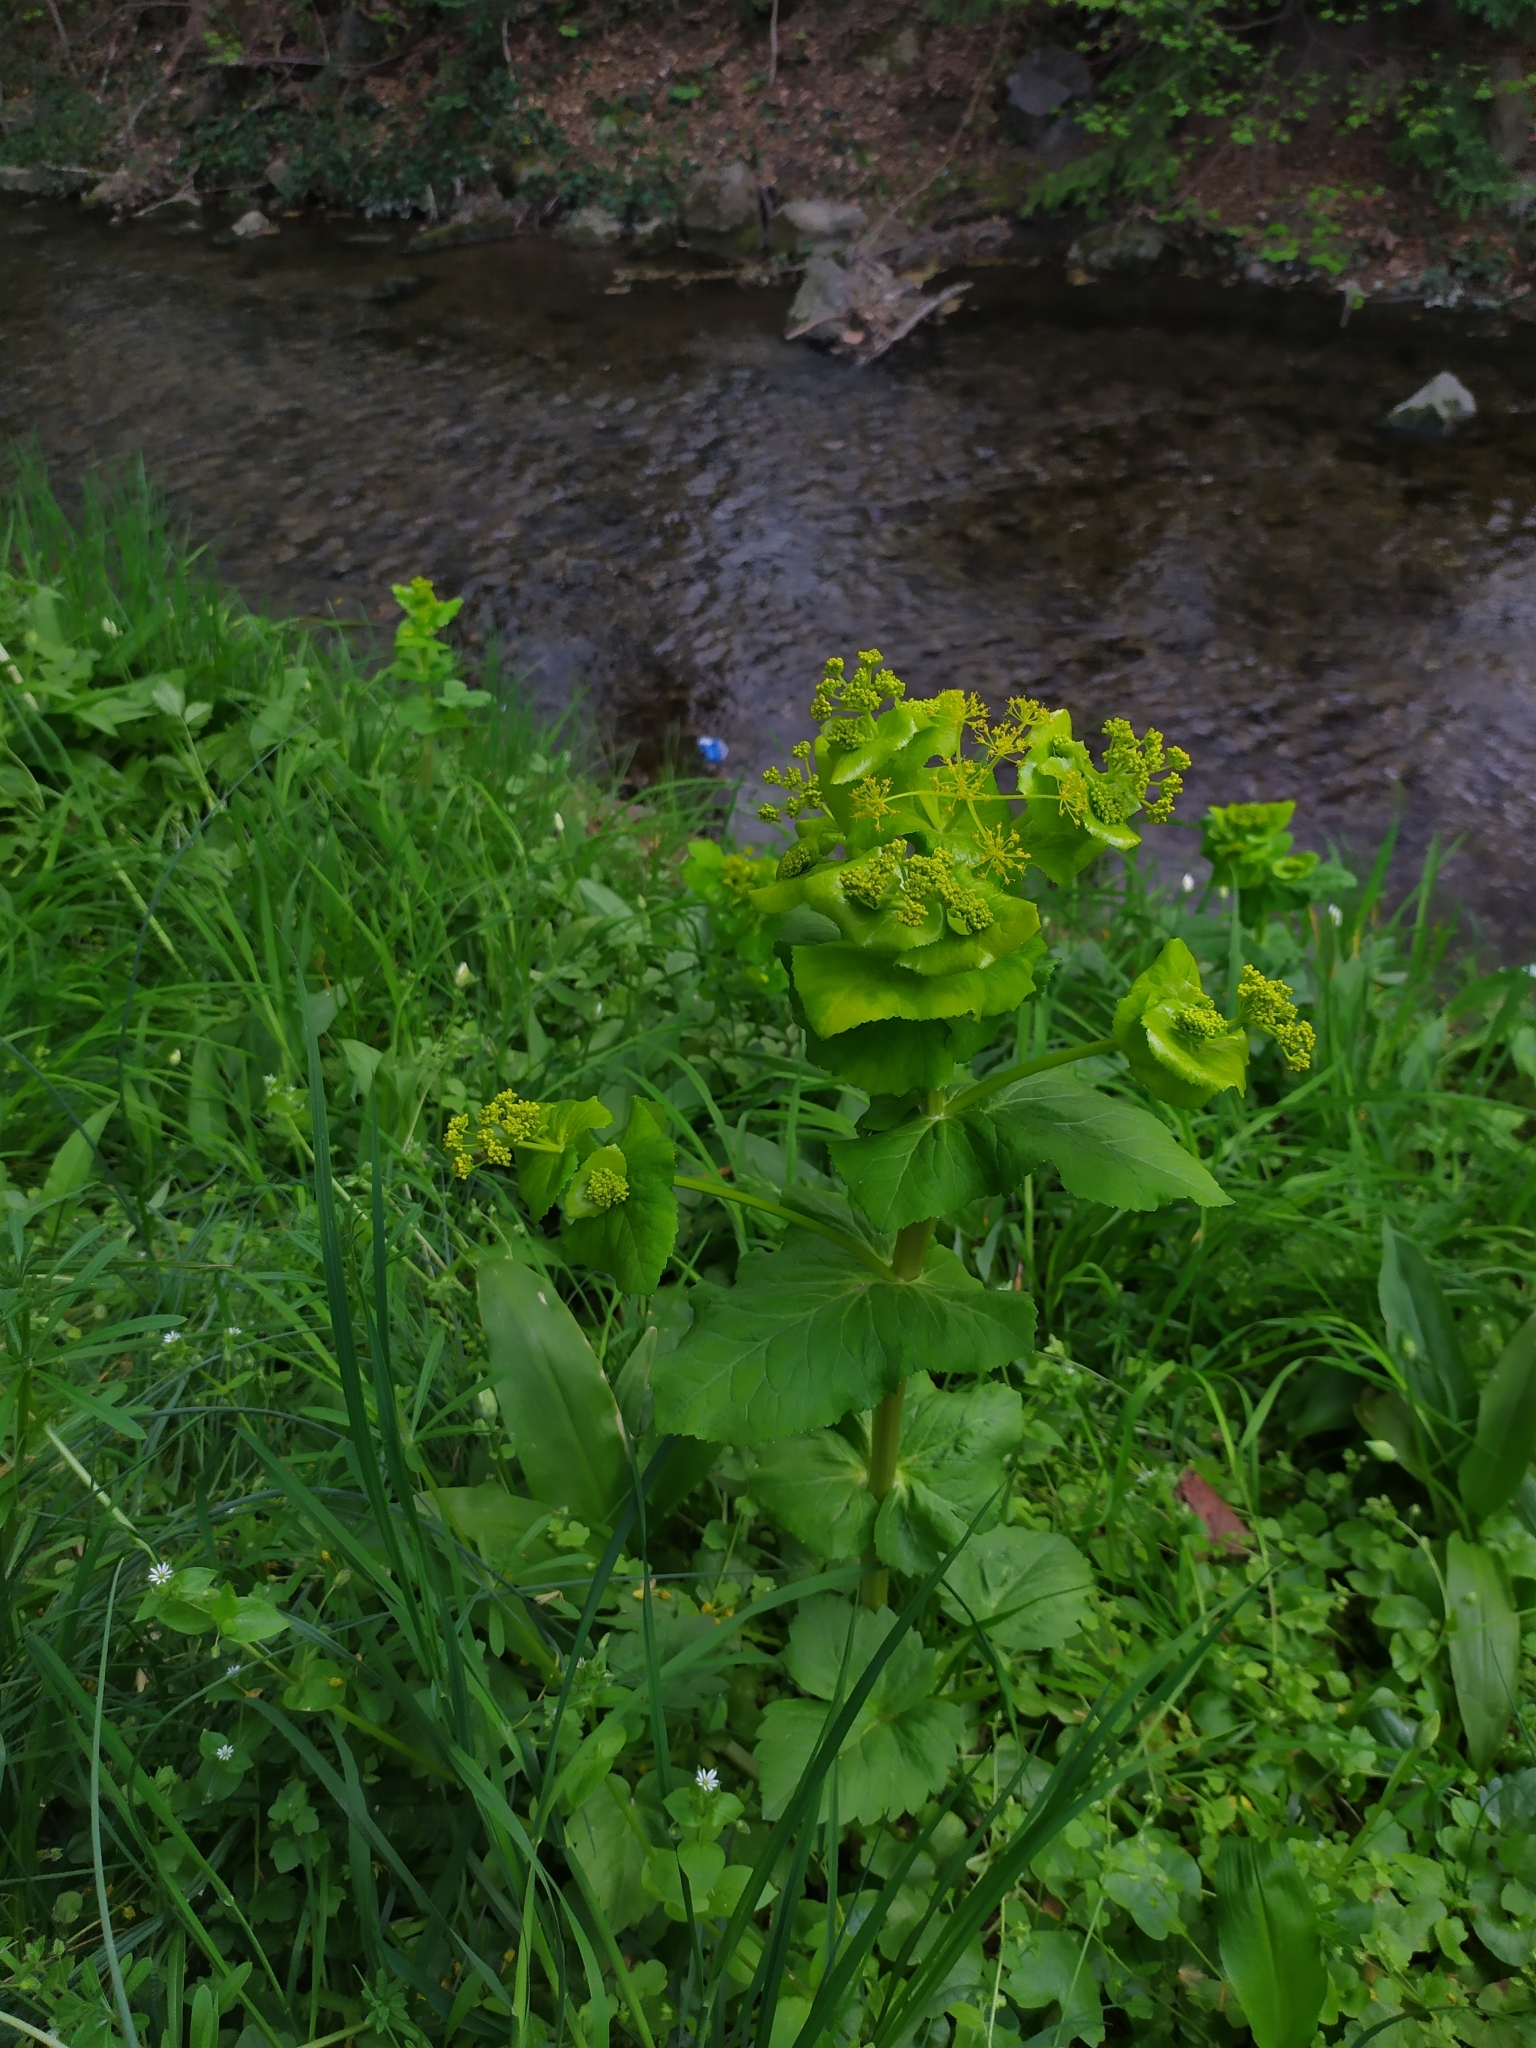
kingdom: Plantae
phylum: Tracheophyta
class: Magnoliopsida
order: Apiales
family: Apiaceae
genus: Smyrnium
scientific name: Smyrnium perfoliatum
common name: Perfoliate alexanders
